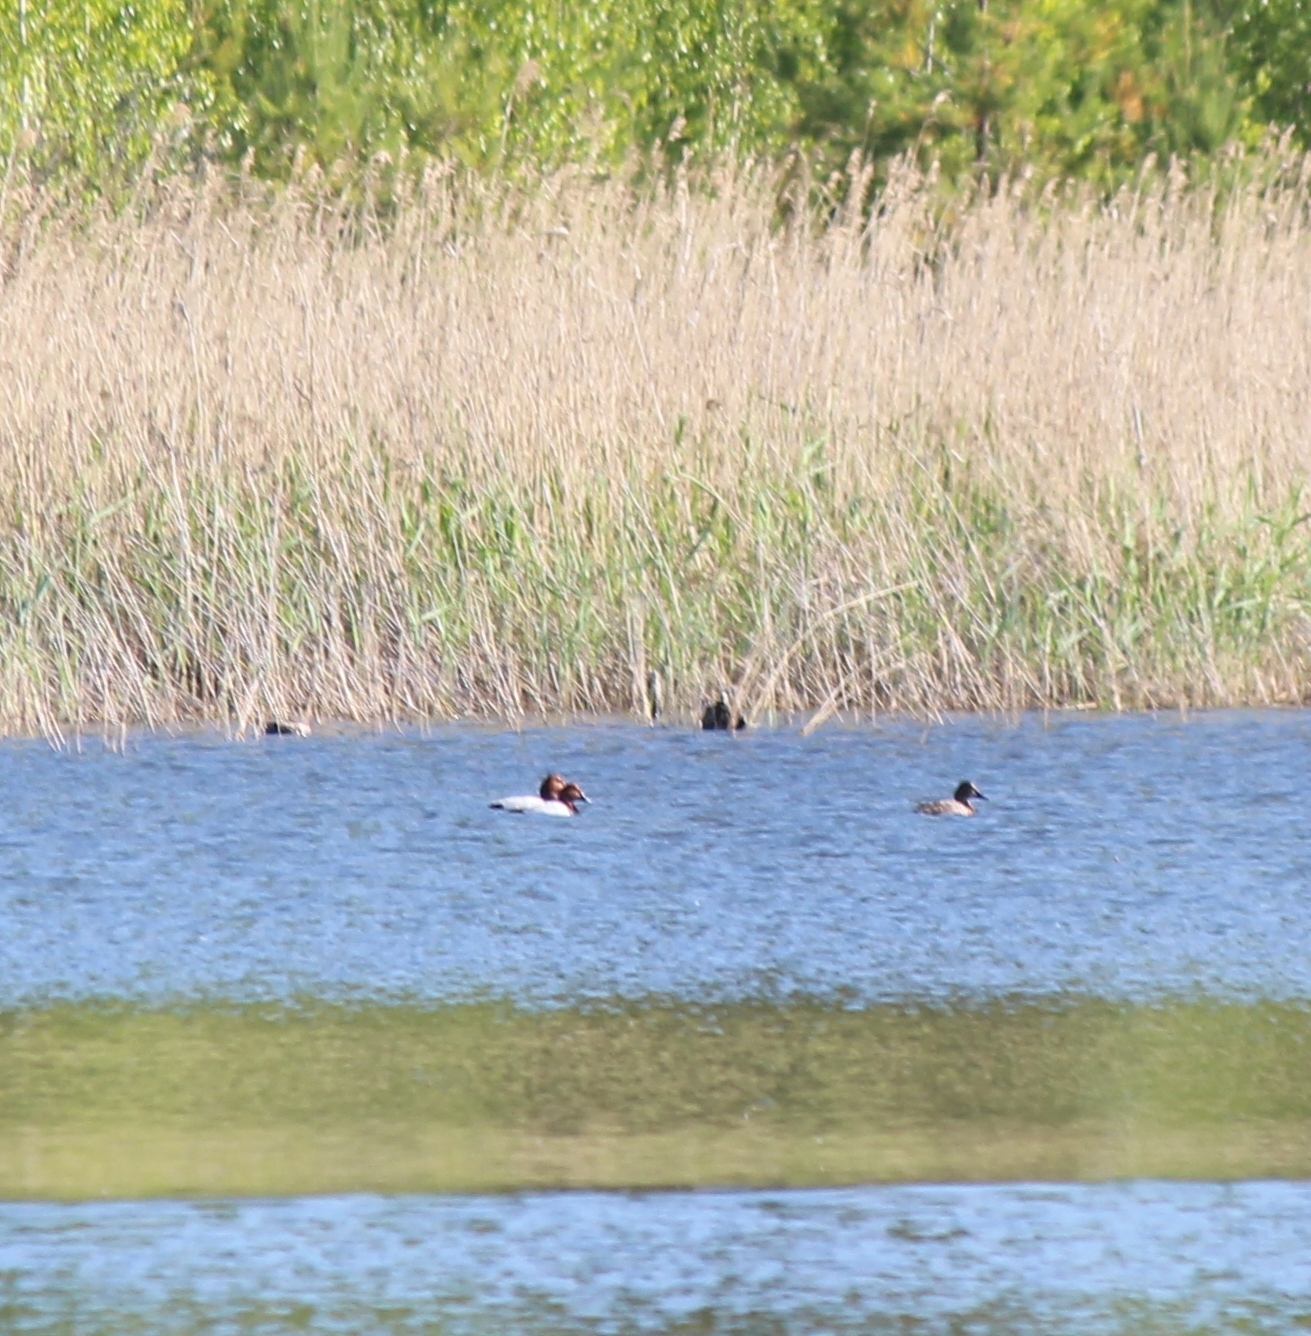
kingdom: Animalia
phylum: Chordata
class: Aves
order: Anseriformes
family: Anatidae
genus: Aythya
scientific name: Aythya ferina
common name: Common pochard
